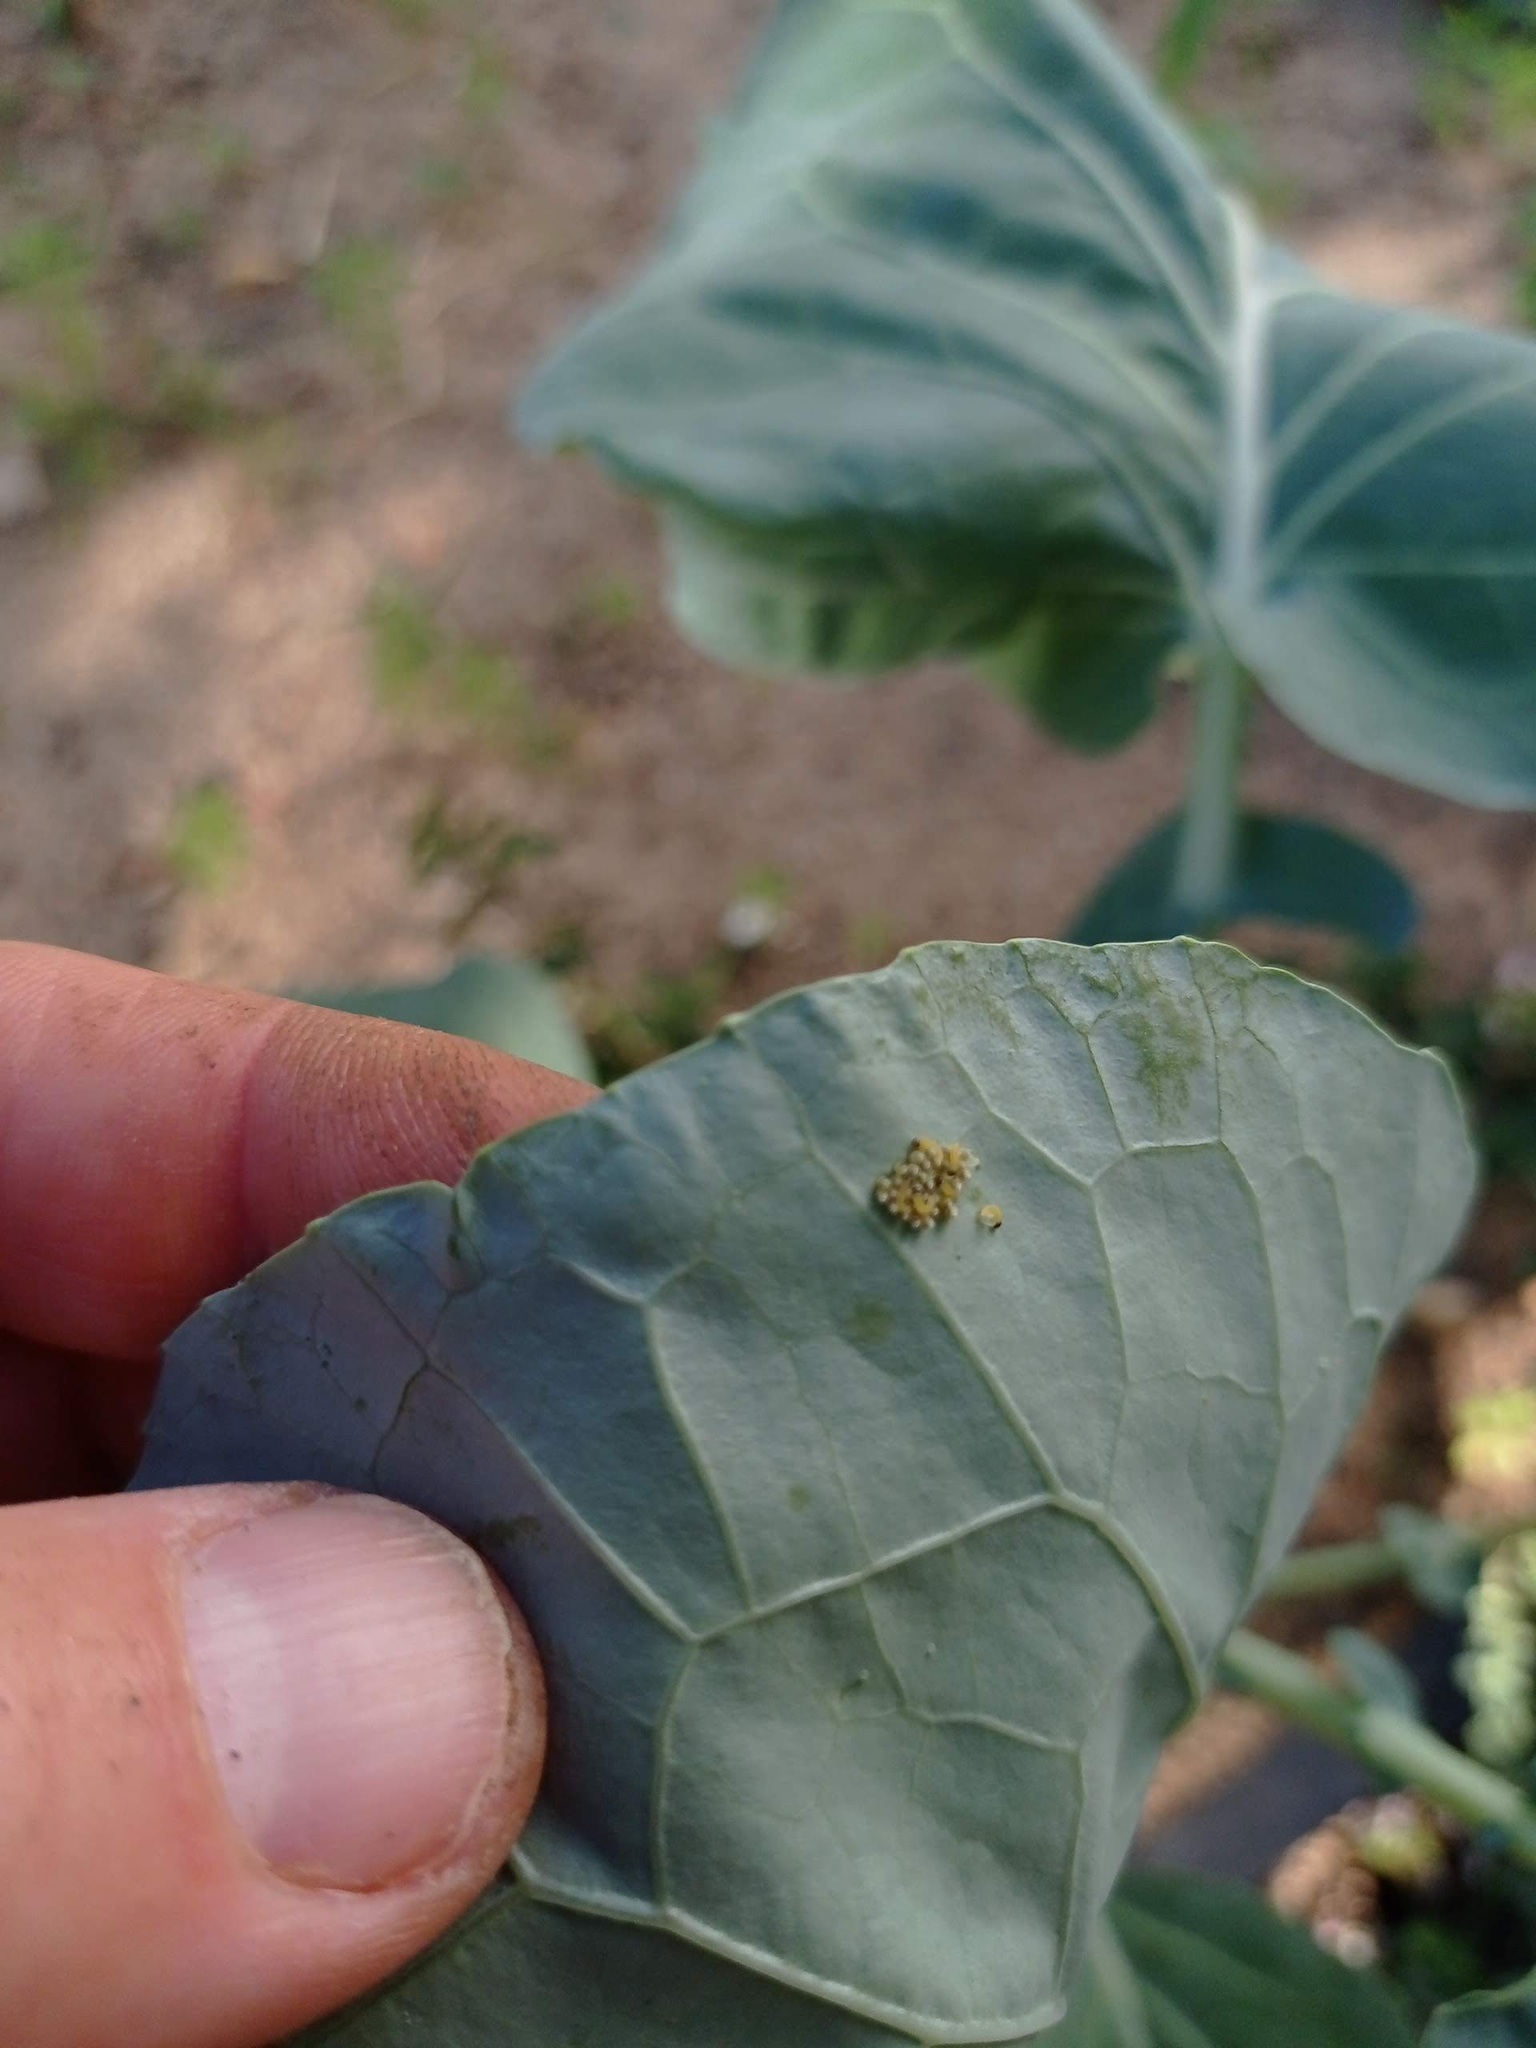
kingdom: Animalia
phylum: Arthropoda
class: Insecta
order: Lepidoptera
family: Pieridae
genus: Pieris
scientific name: Pieris brassicae
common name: Large white
